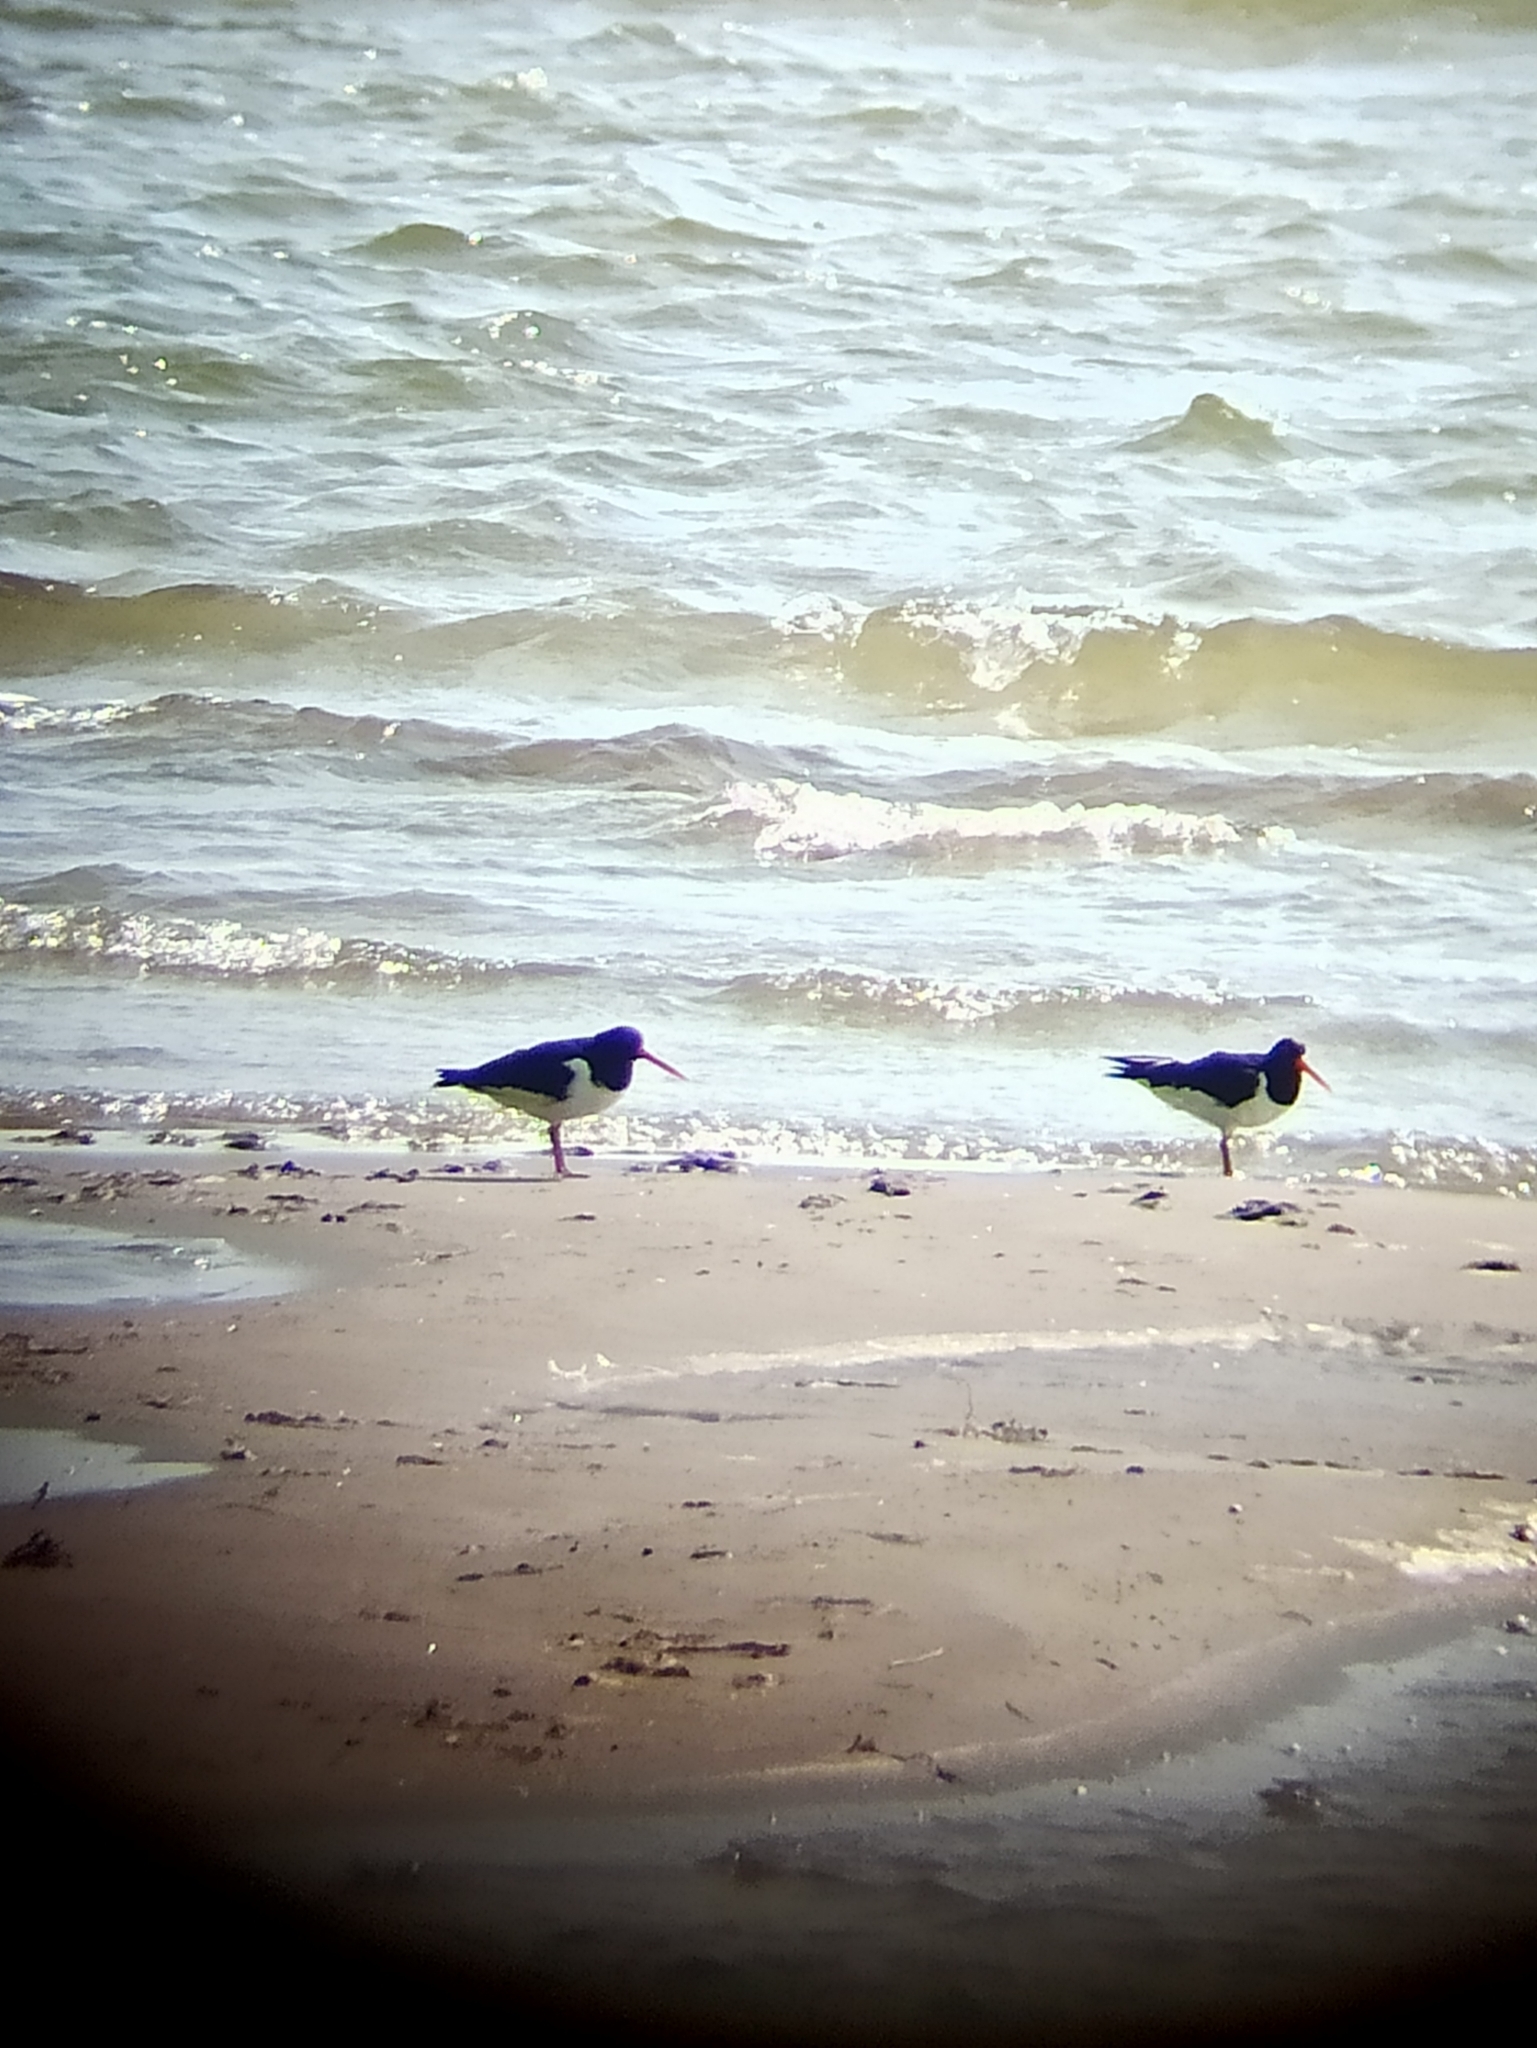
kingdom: Animalia
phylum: Chordata
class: Aves
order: Charadriiformes
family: Haematopodidae
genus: Haematopus
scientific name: Haematopus ostralegus
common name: Eurasian oystercatcher
